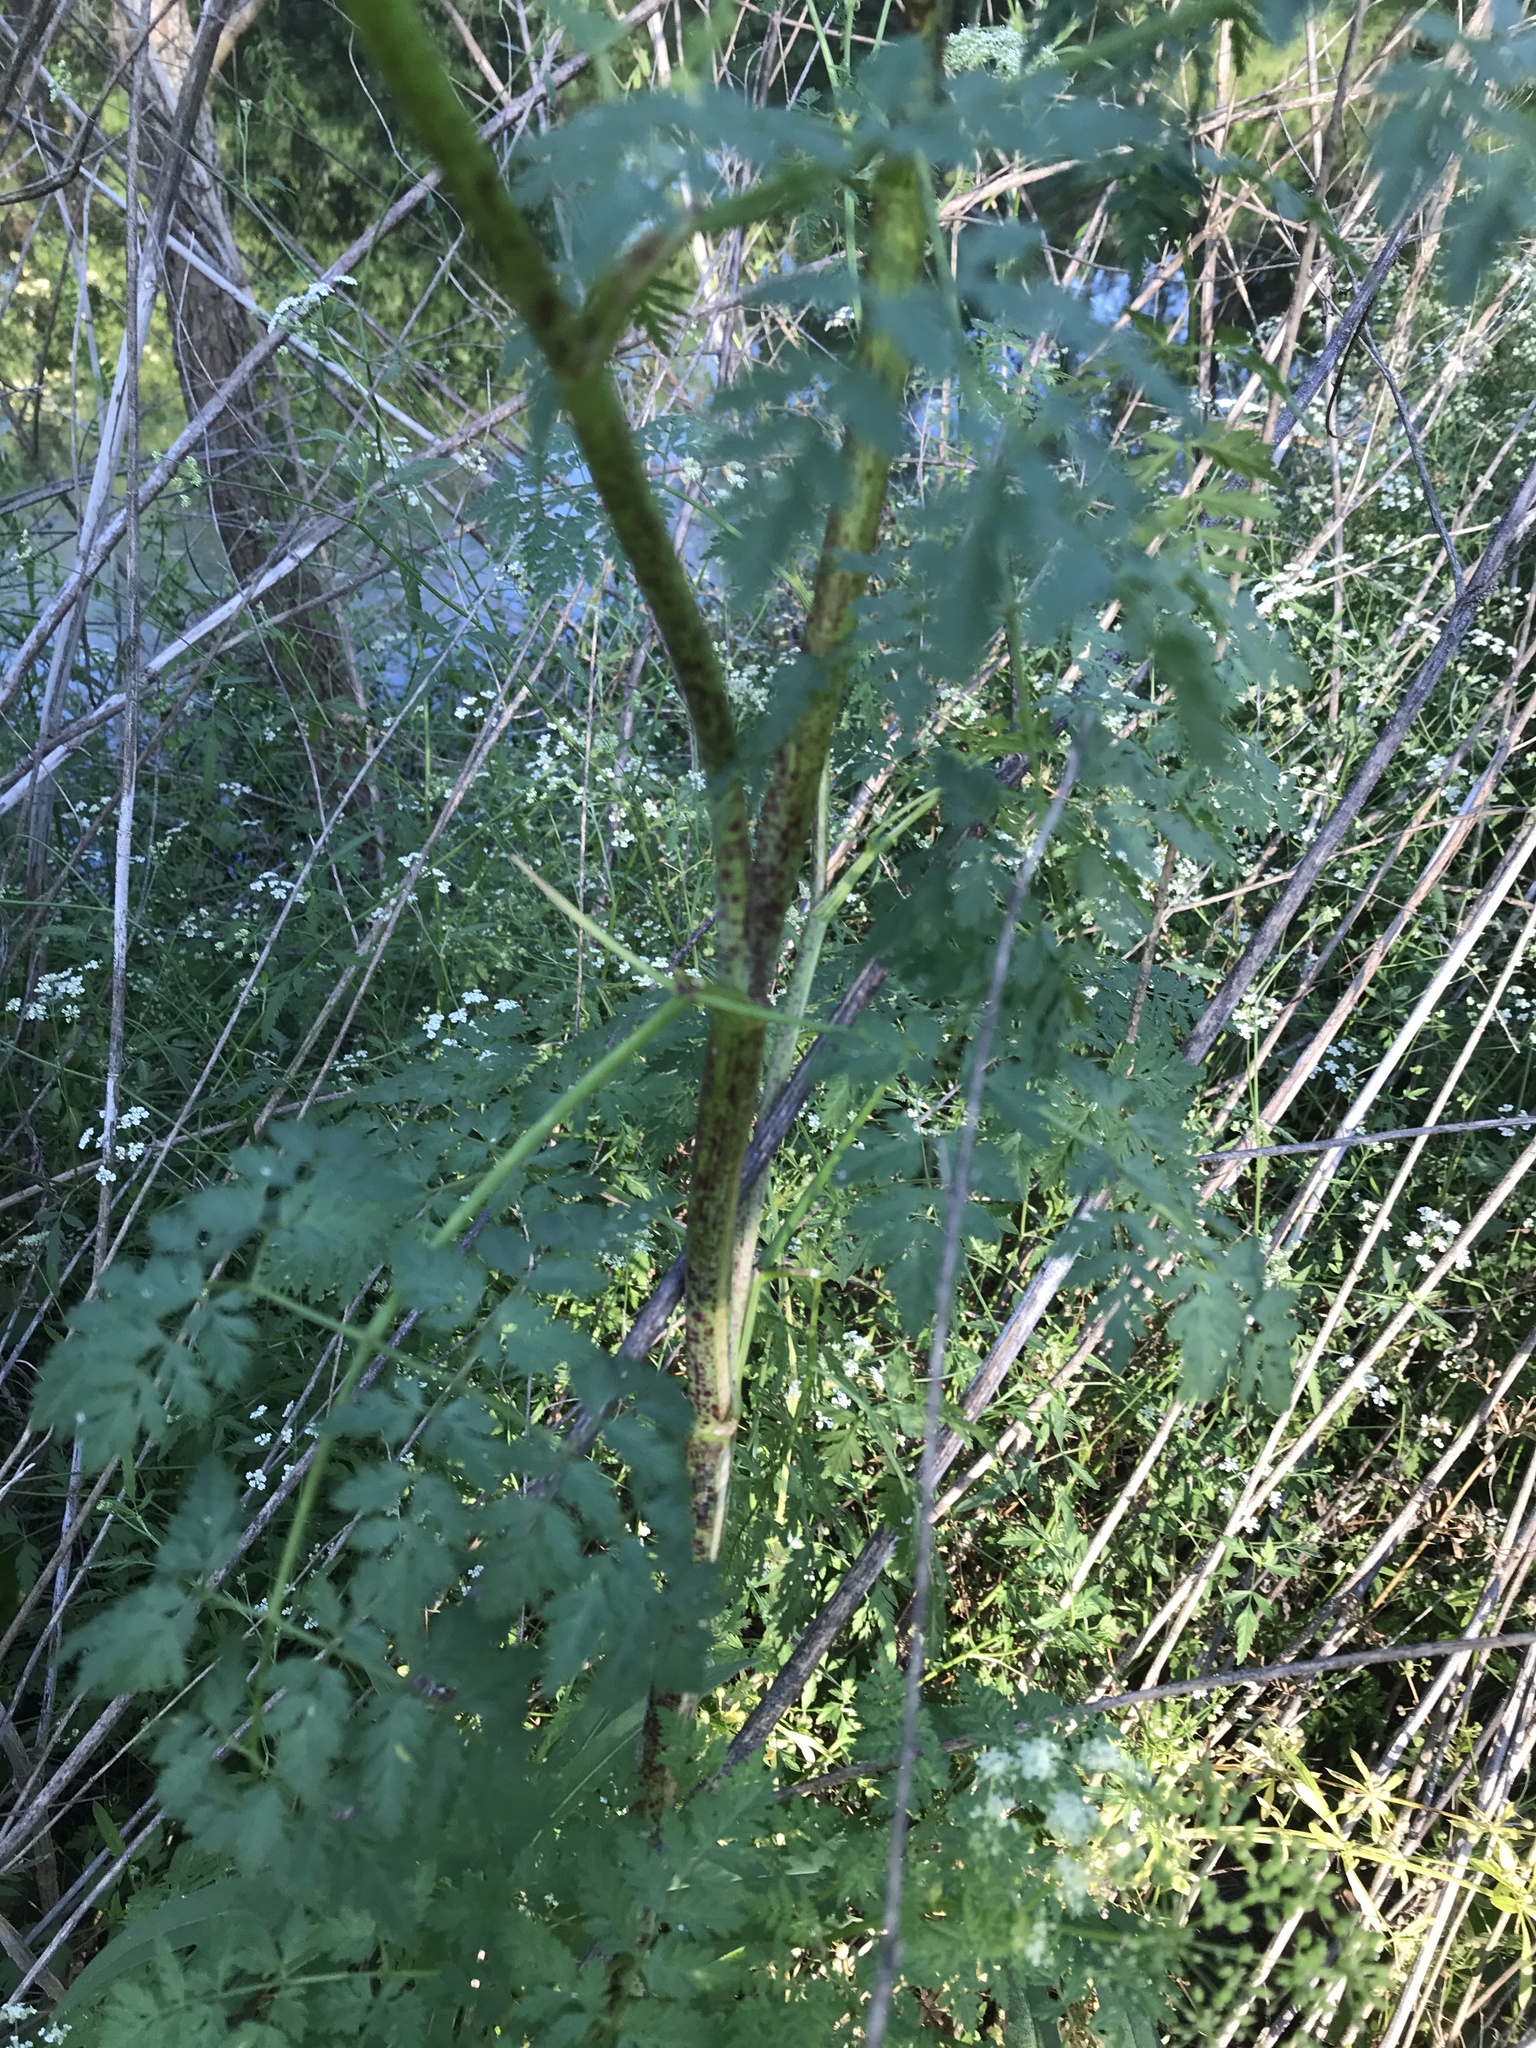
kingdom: Plantae
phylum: Tracheophyta
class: Magnoliopsida
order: Apiales
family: Apiaceae
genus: Conium
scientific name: Conium maculatum
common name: Hemlock
